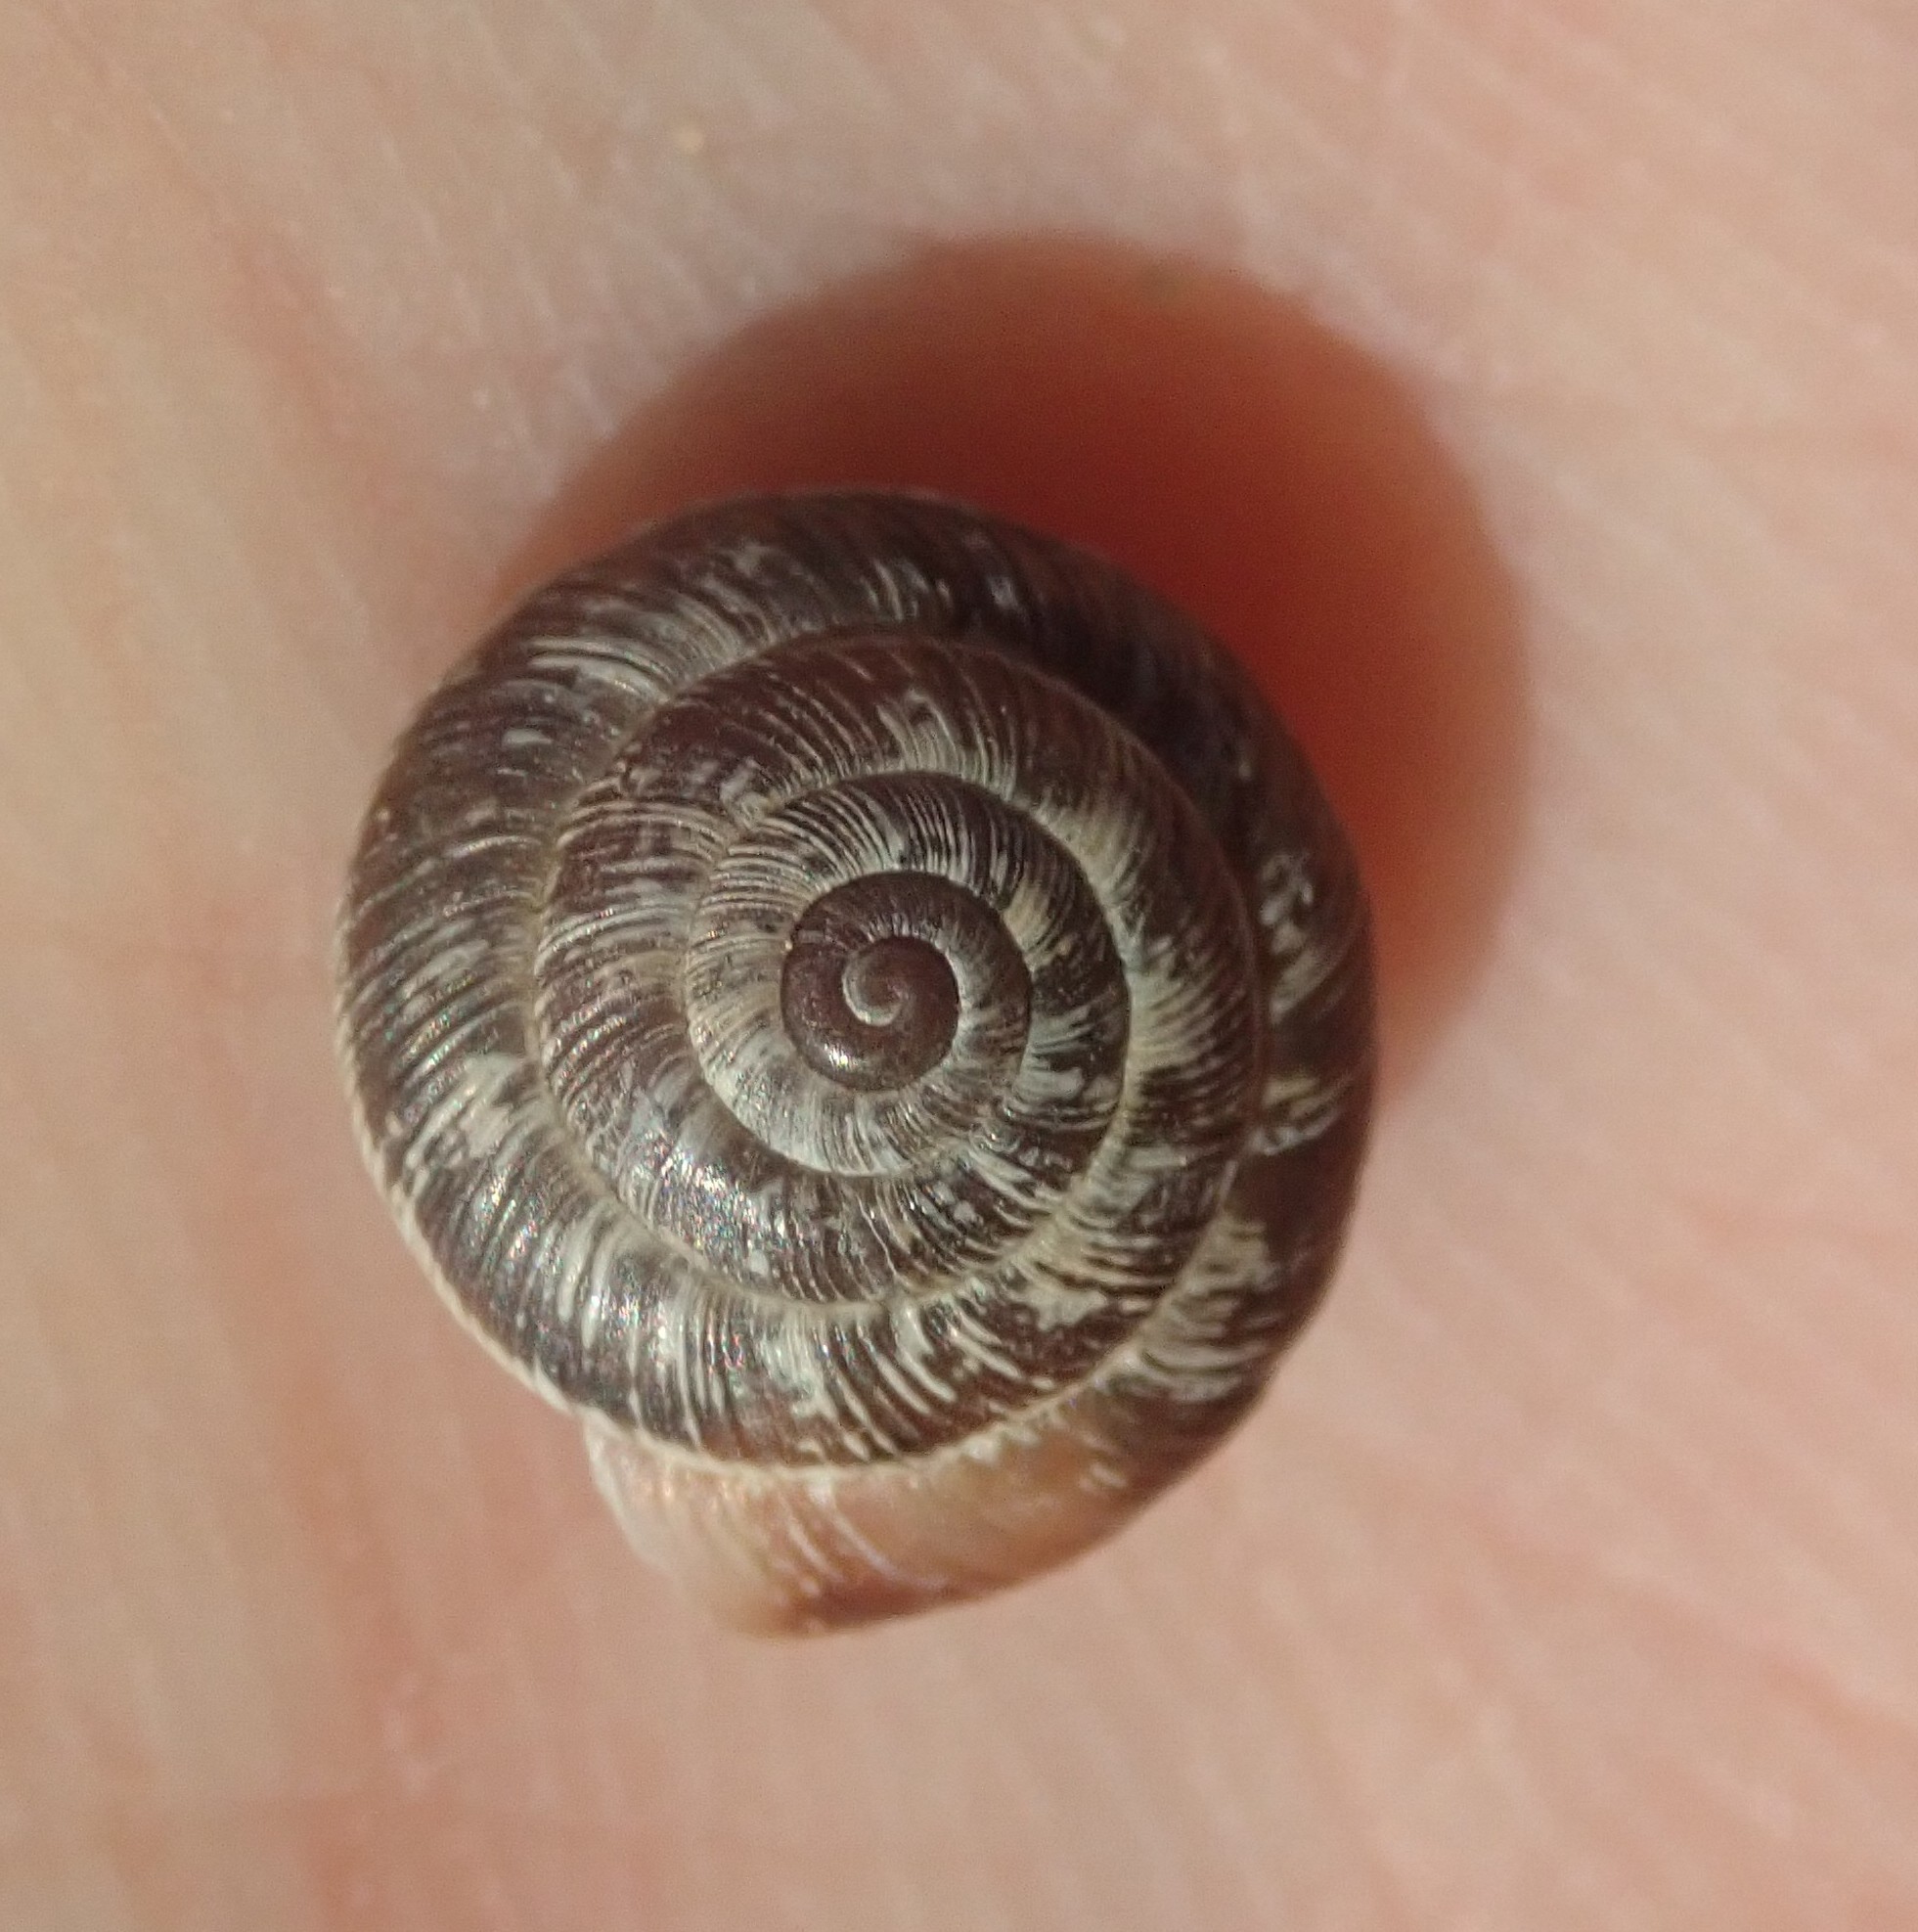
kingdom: Animalia
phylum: Mollusca
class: Gastropoda
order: Stylommatophora
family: Geomitridae
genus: Xeroplexa
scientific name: Xeroplexa intersecta
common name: Wrinkled snail
